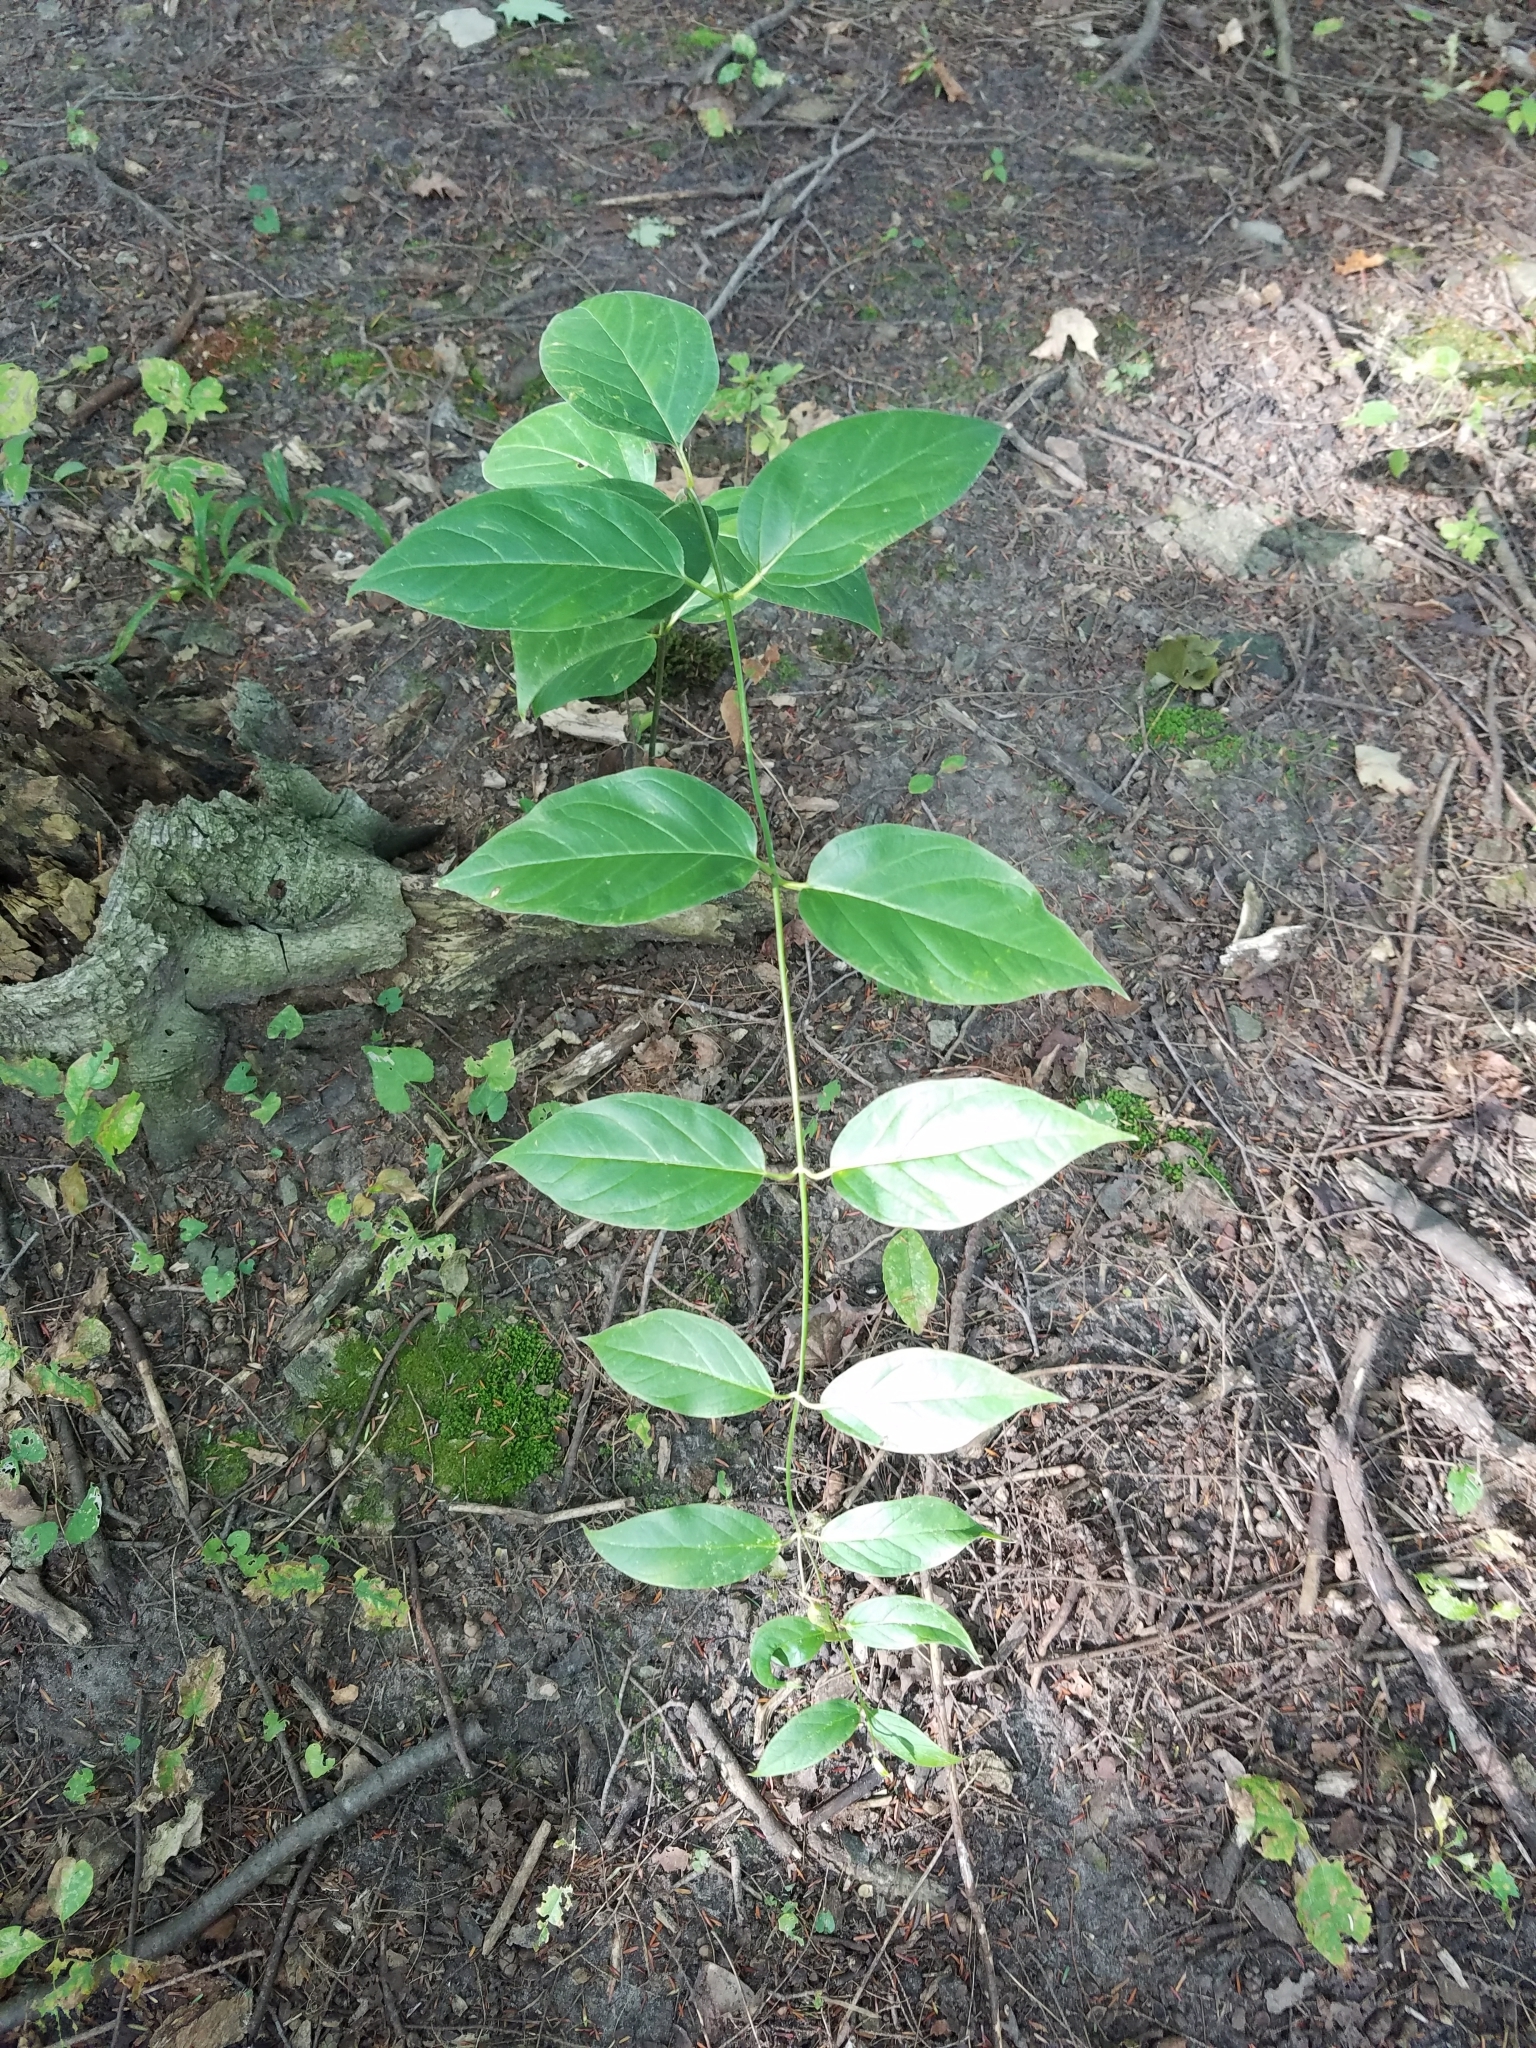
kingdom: Plantae
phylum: Tracheophyta
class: Magnoliopsida
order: Gentianales
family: Apocynaceae
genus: Vincetoxicum
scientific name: Vincetoxicum rossicum
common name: Dog-strangling vine
